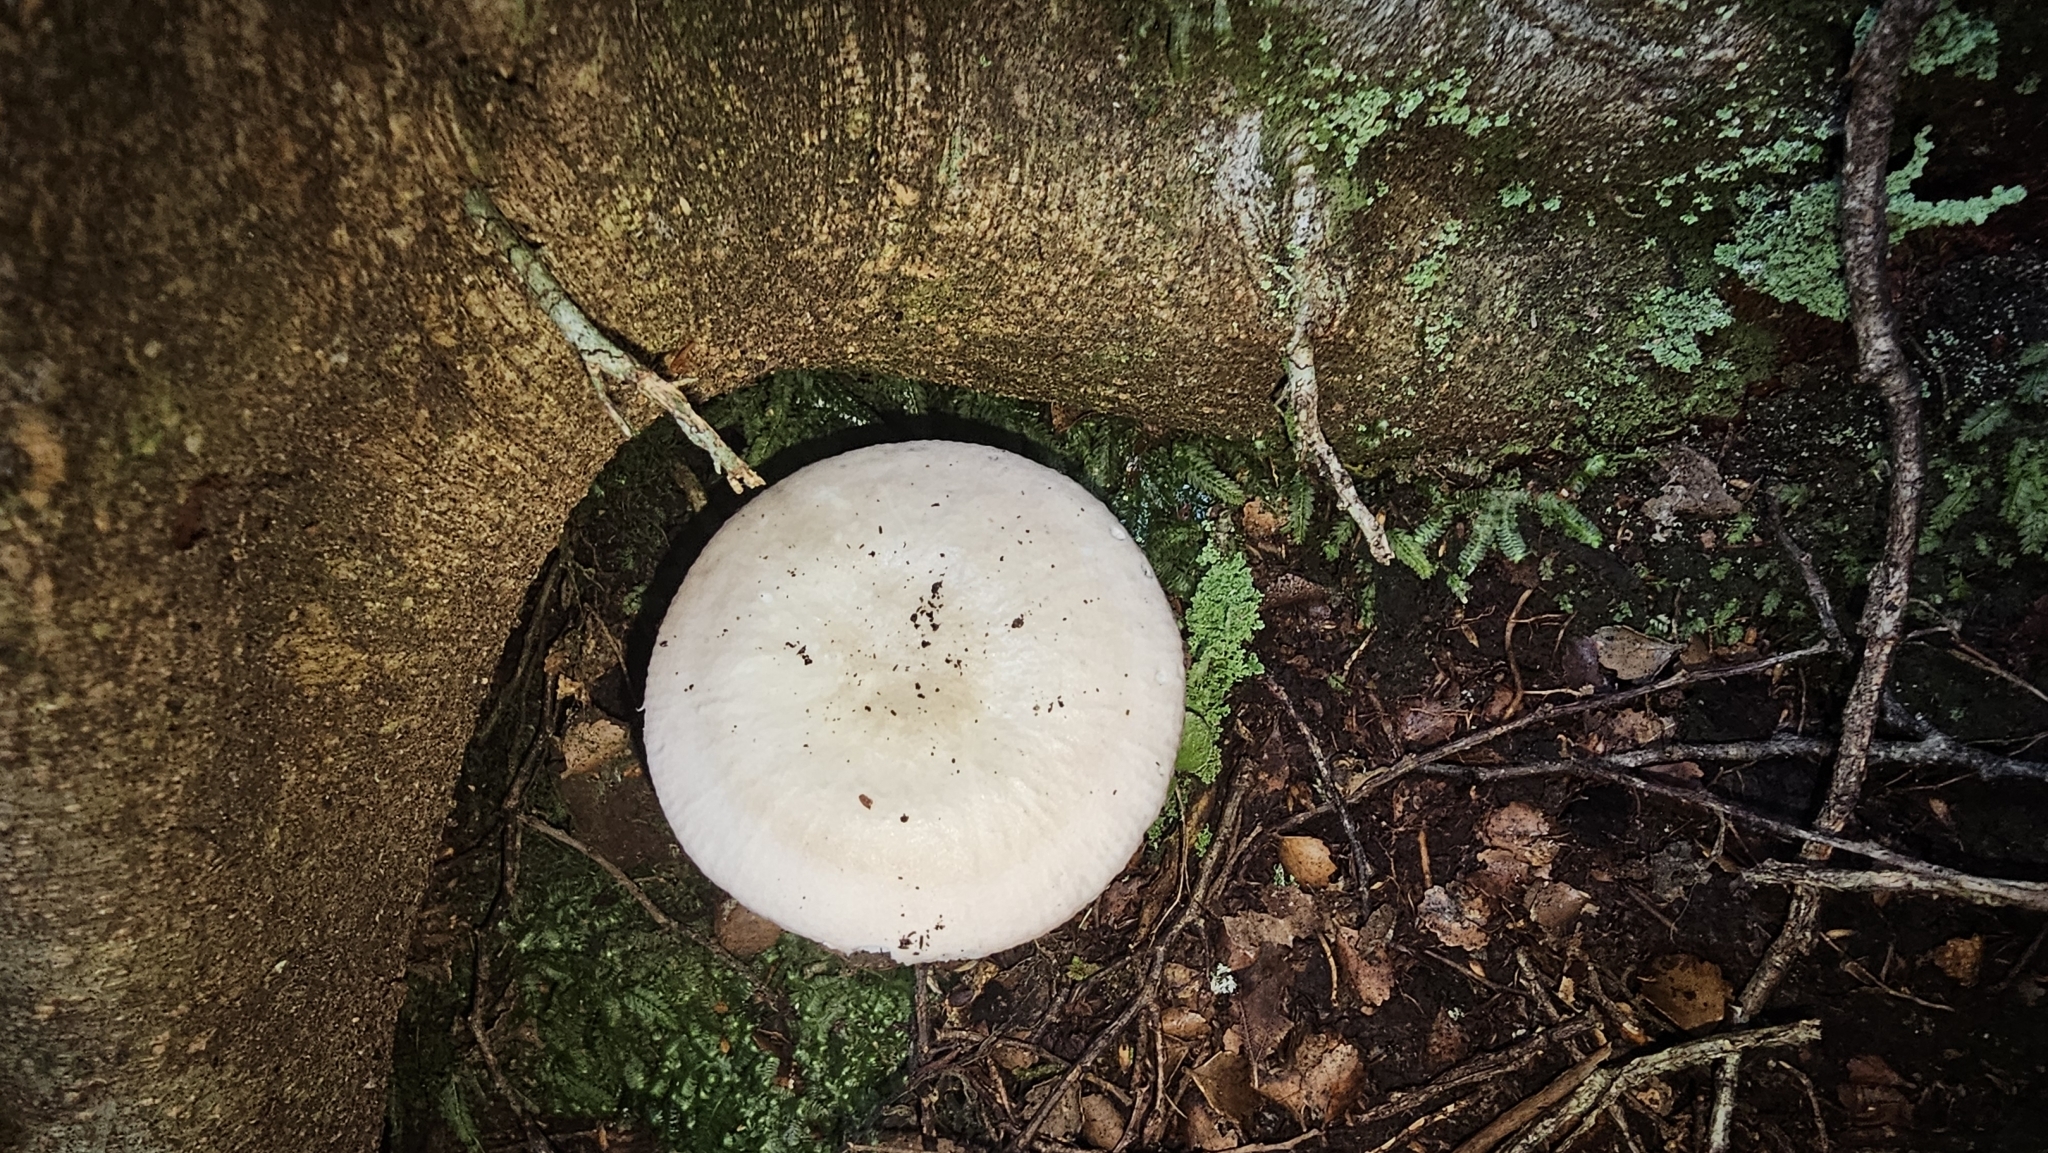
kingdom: Fungi
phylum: Basidiomycota
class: Agaricomycetes
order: Russulales
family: Russulaceae
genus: Russula
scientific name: Russula purpureotincta
